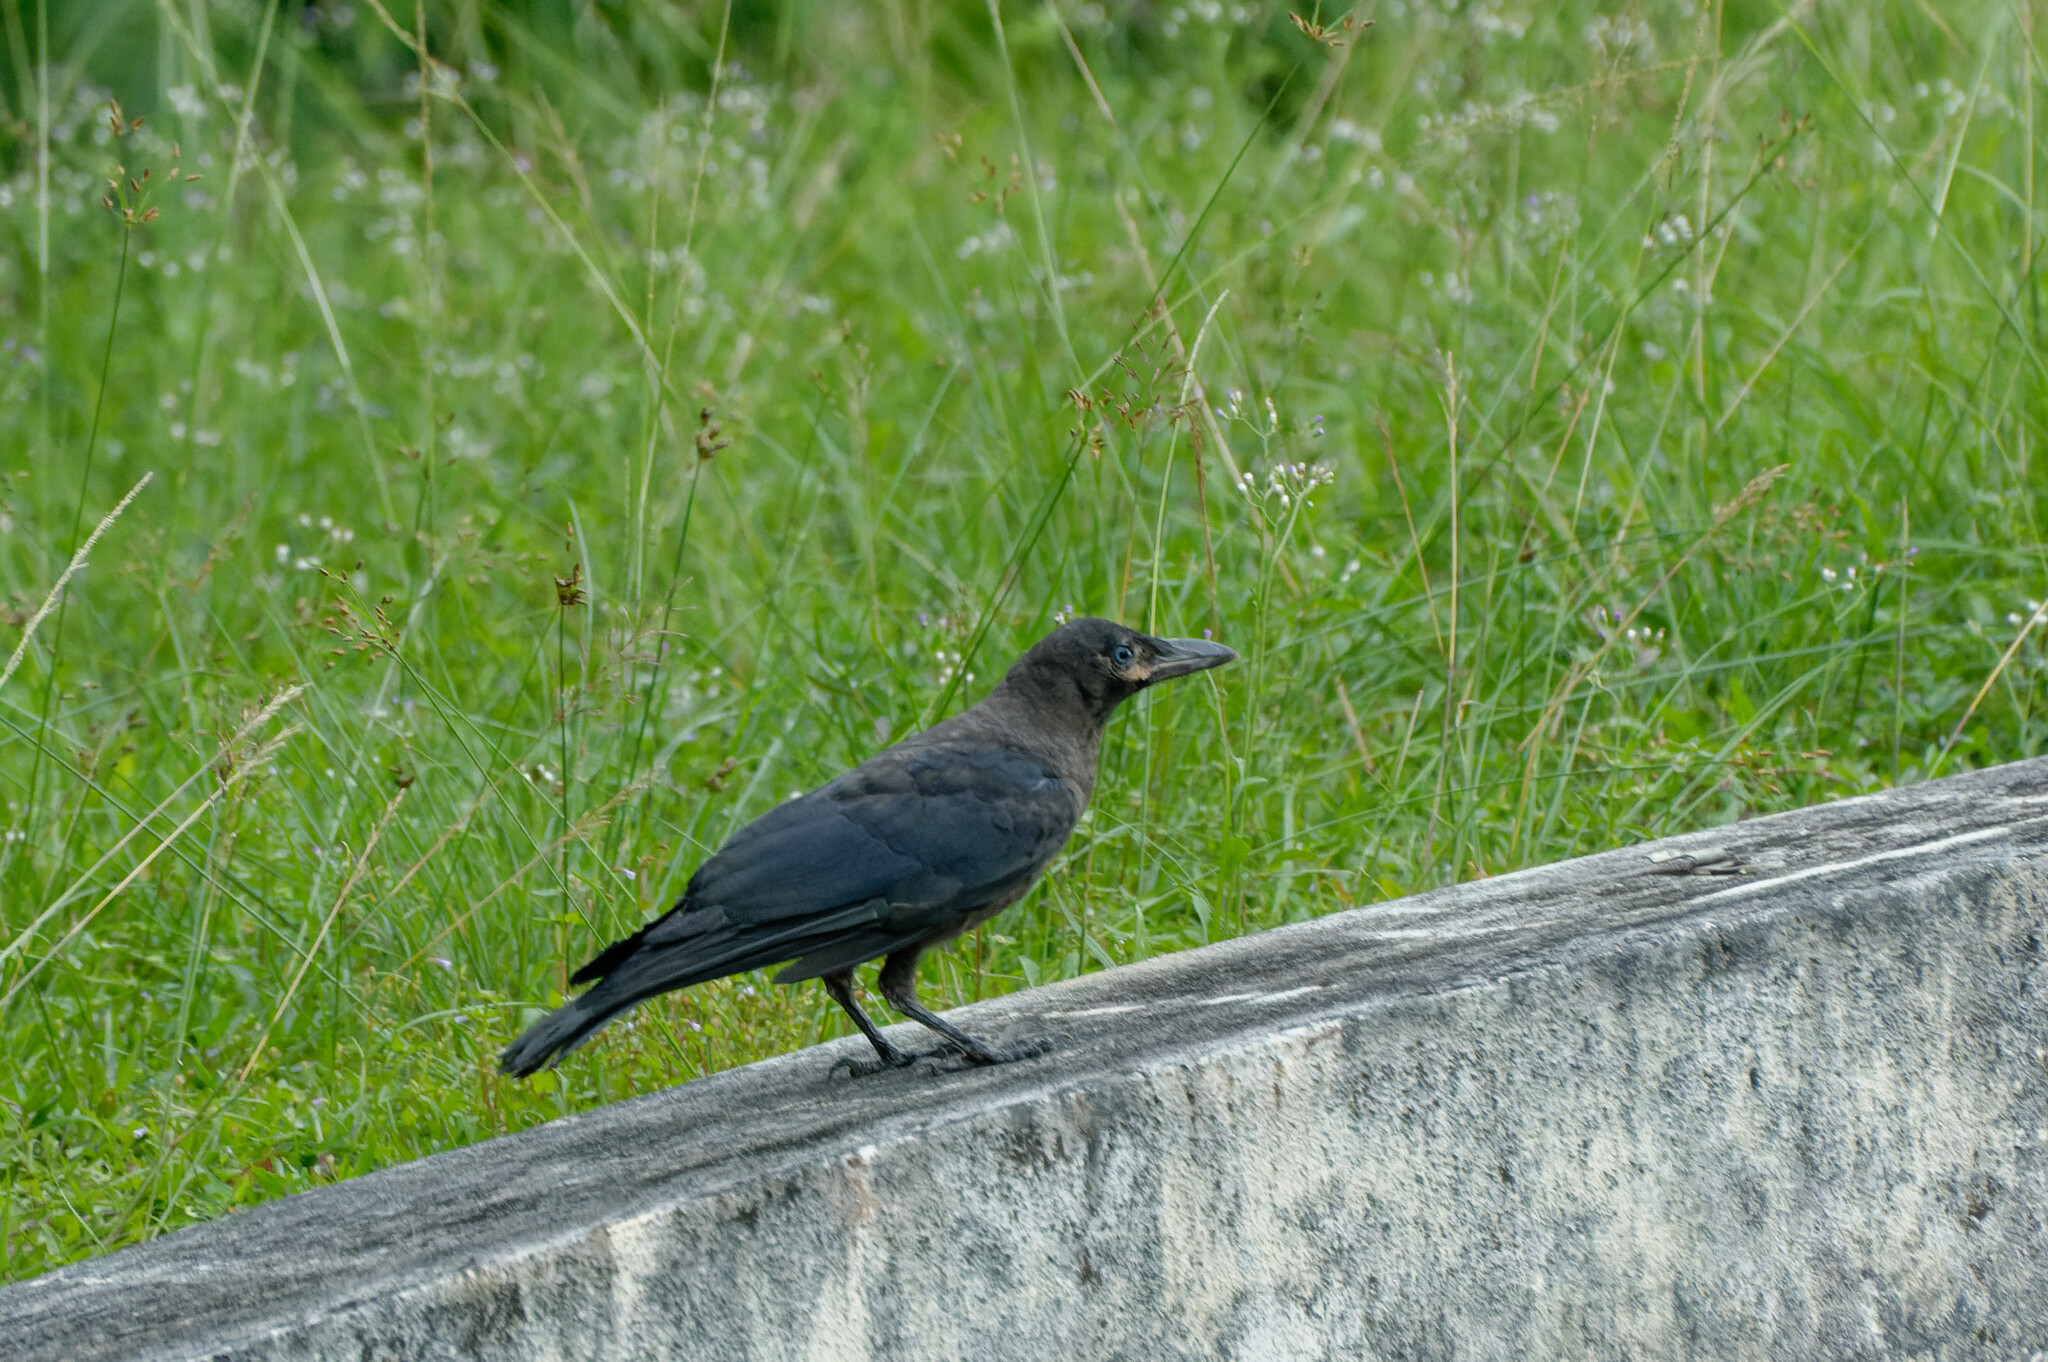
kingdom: Animalia
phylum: Chordata
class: Aves
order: Passeriformes
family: Corvidae
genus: Corvus
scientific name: Corvus splendens
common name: House crow
